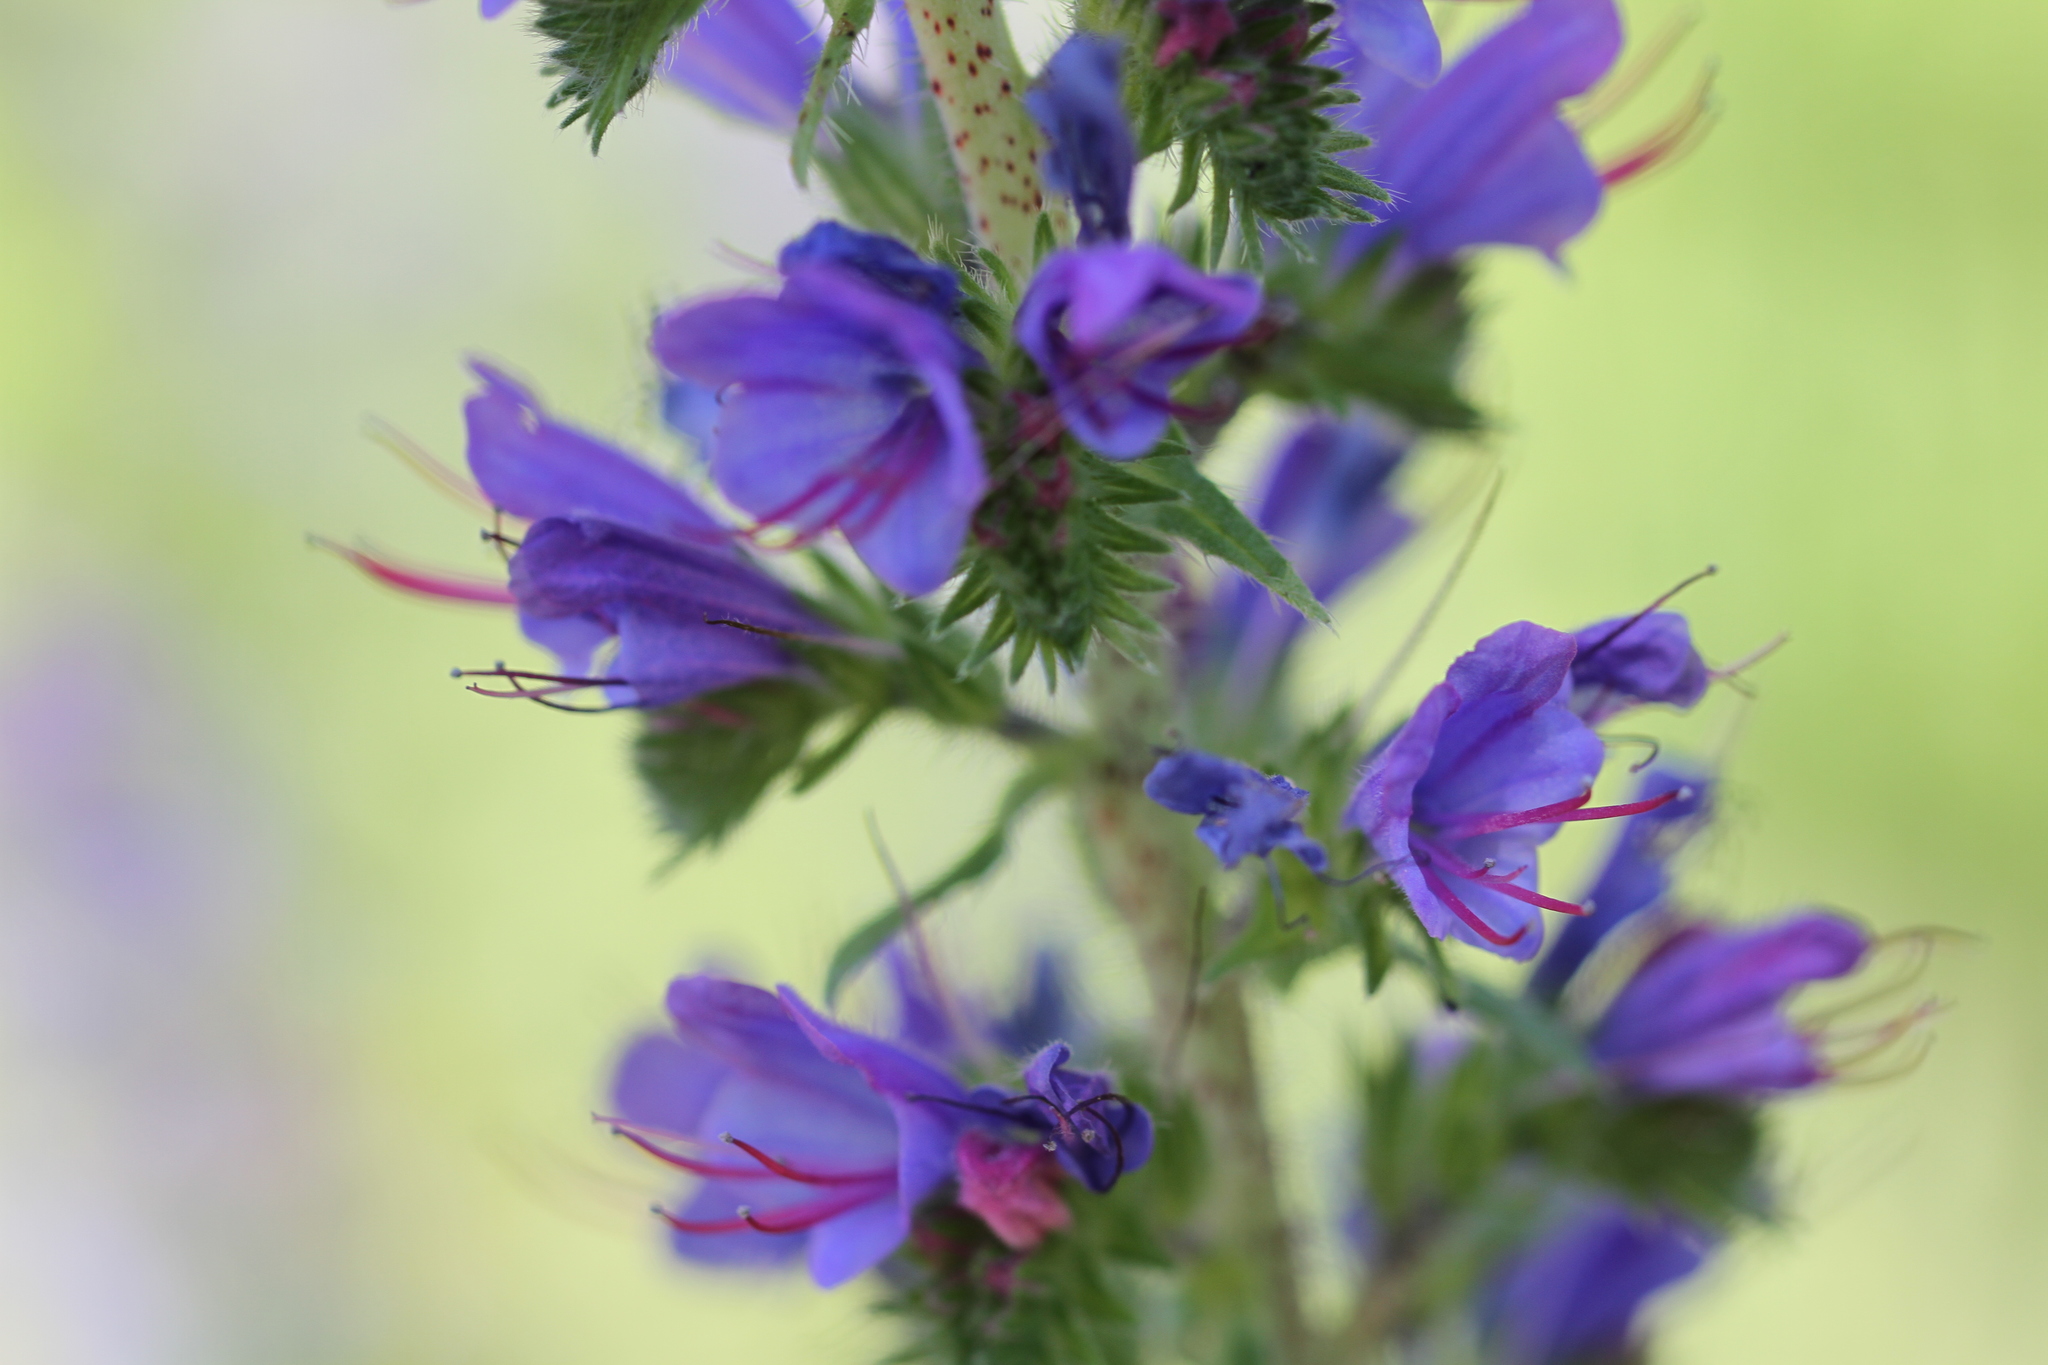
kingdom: Plantae
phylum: Tracheophyta
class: Magnoliopsida
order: Boraginales
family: Boraginaceae
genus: Echium
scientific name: Echium vulgare
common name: Common viper's bugloss
